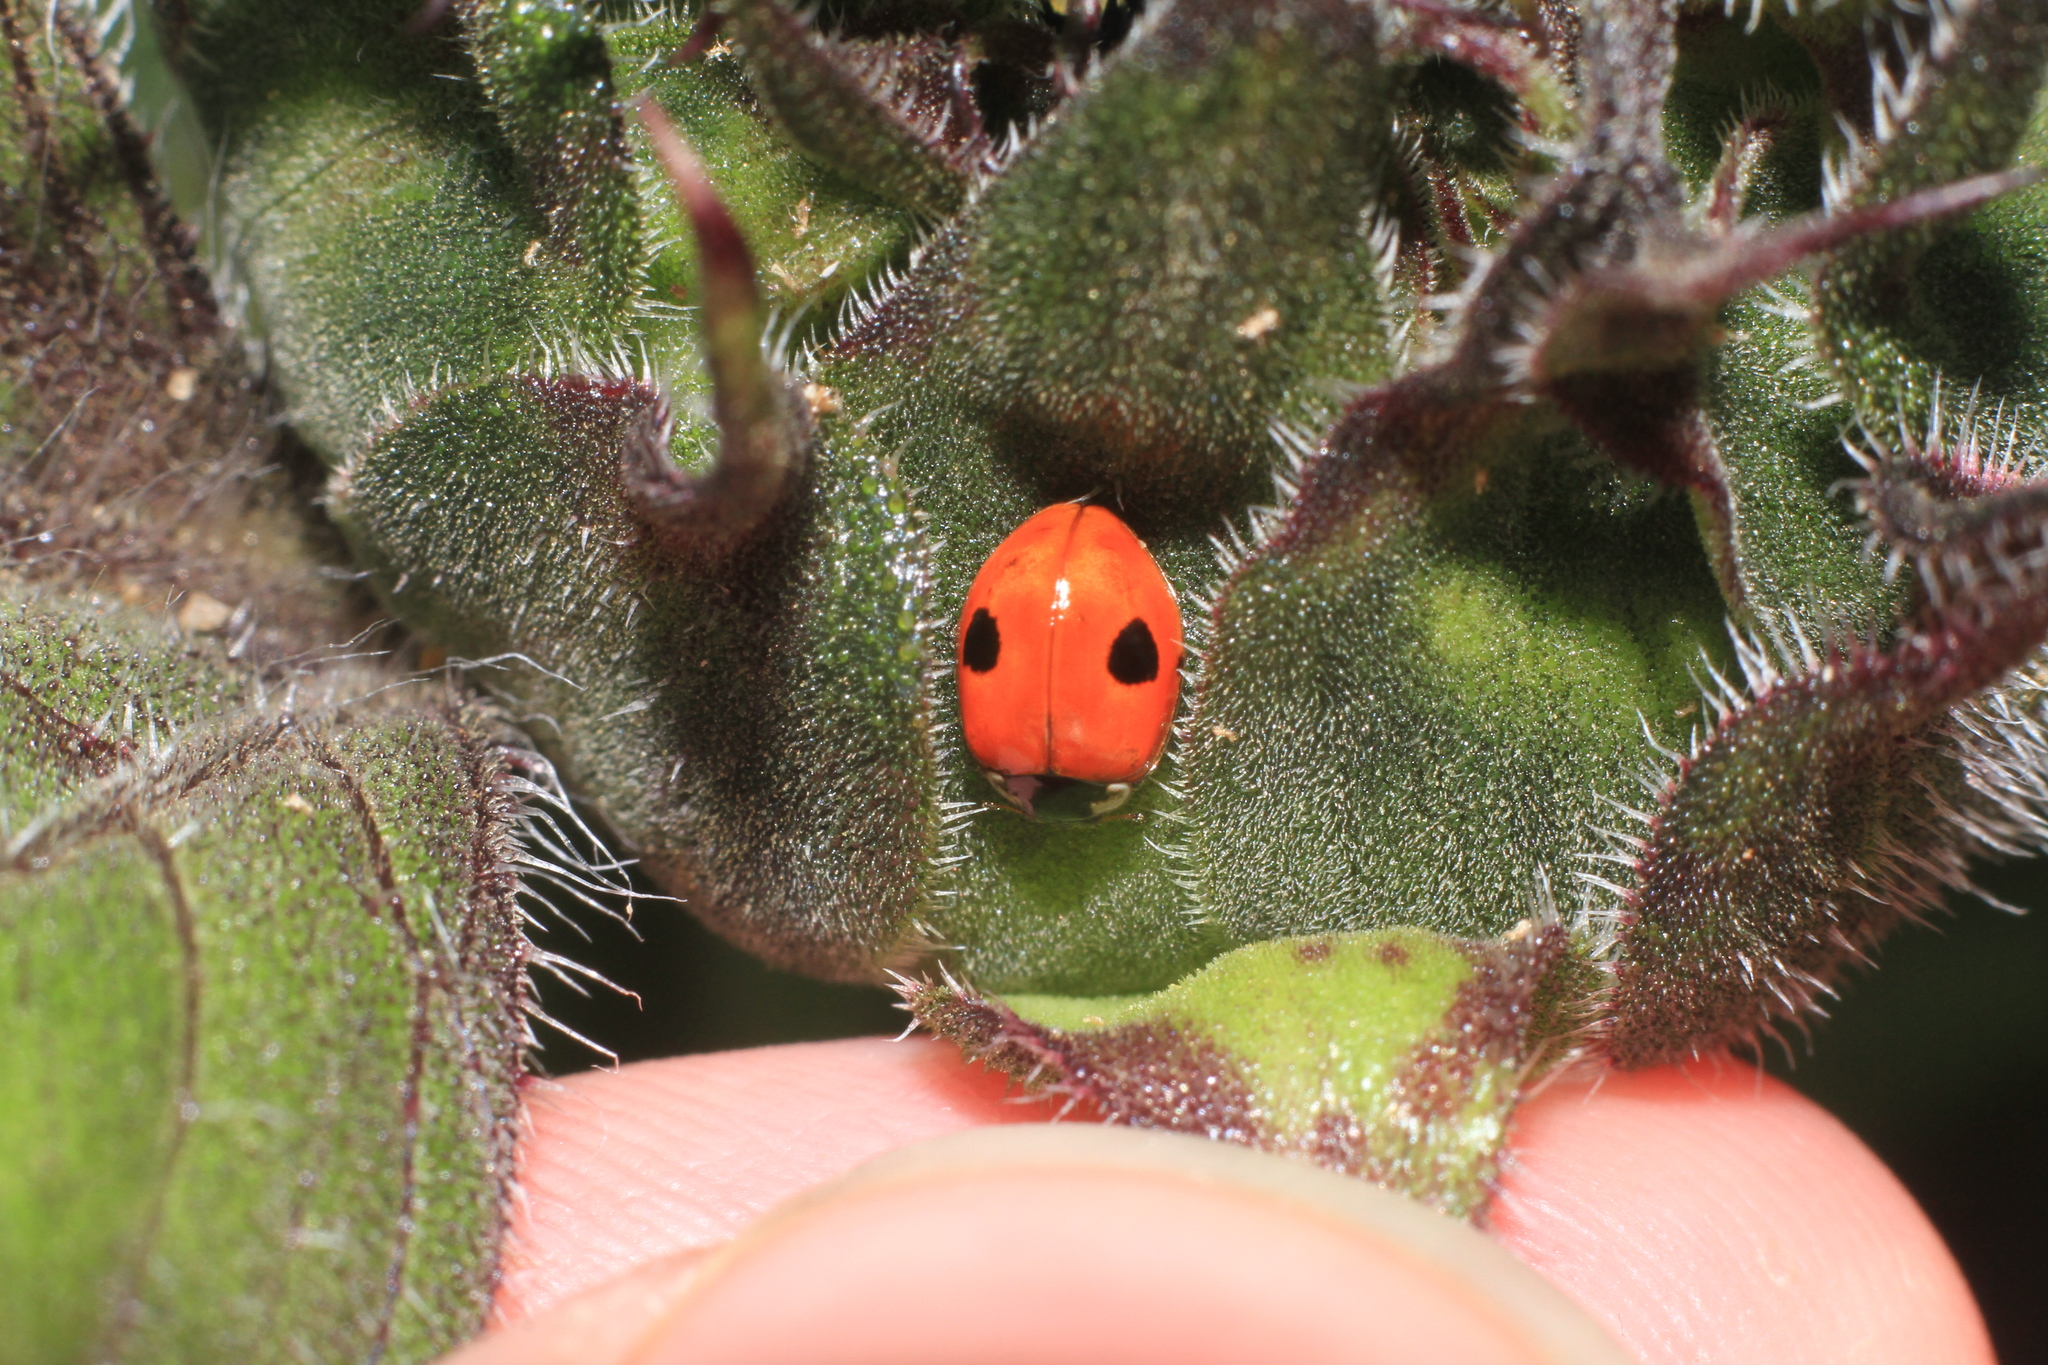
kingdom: Animalia
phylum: Arthropoda
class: Insecta
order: Coleoptera
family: Coccinellidae
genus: Adalia
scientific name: Adalia bipunctata
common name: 2-spot ladybird
